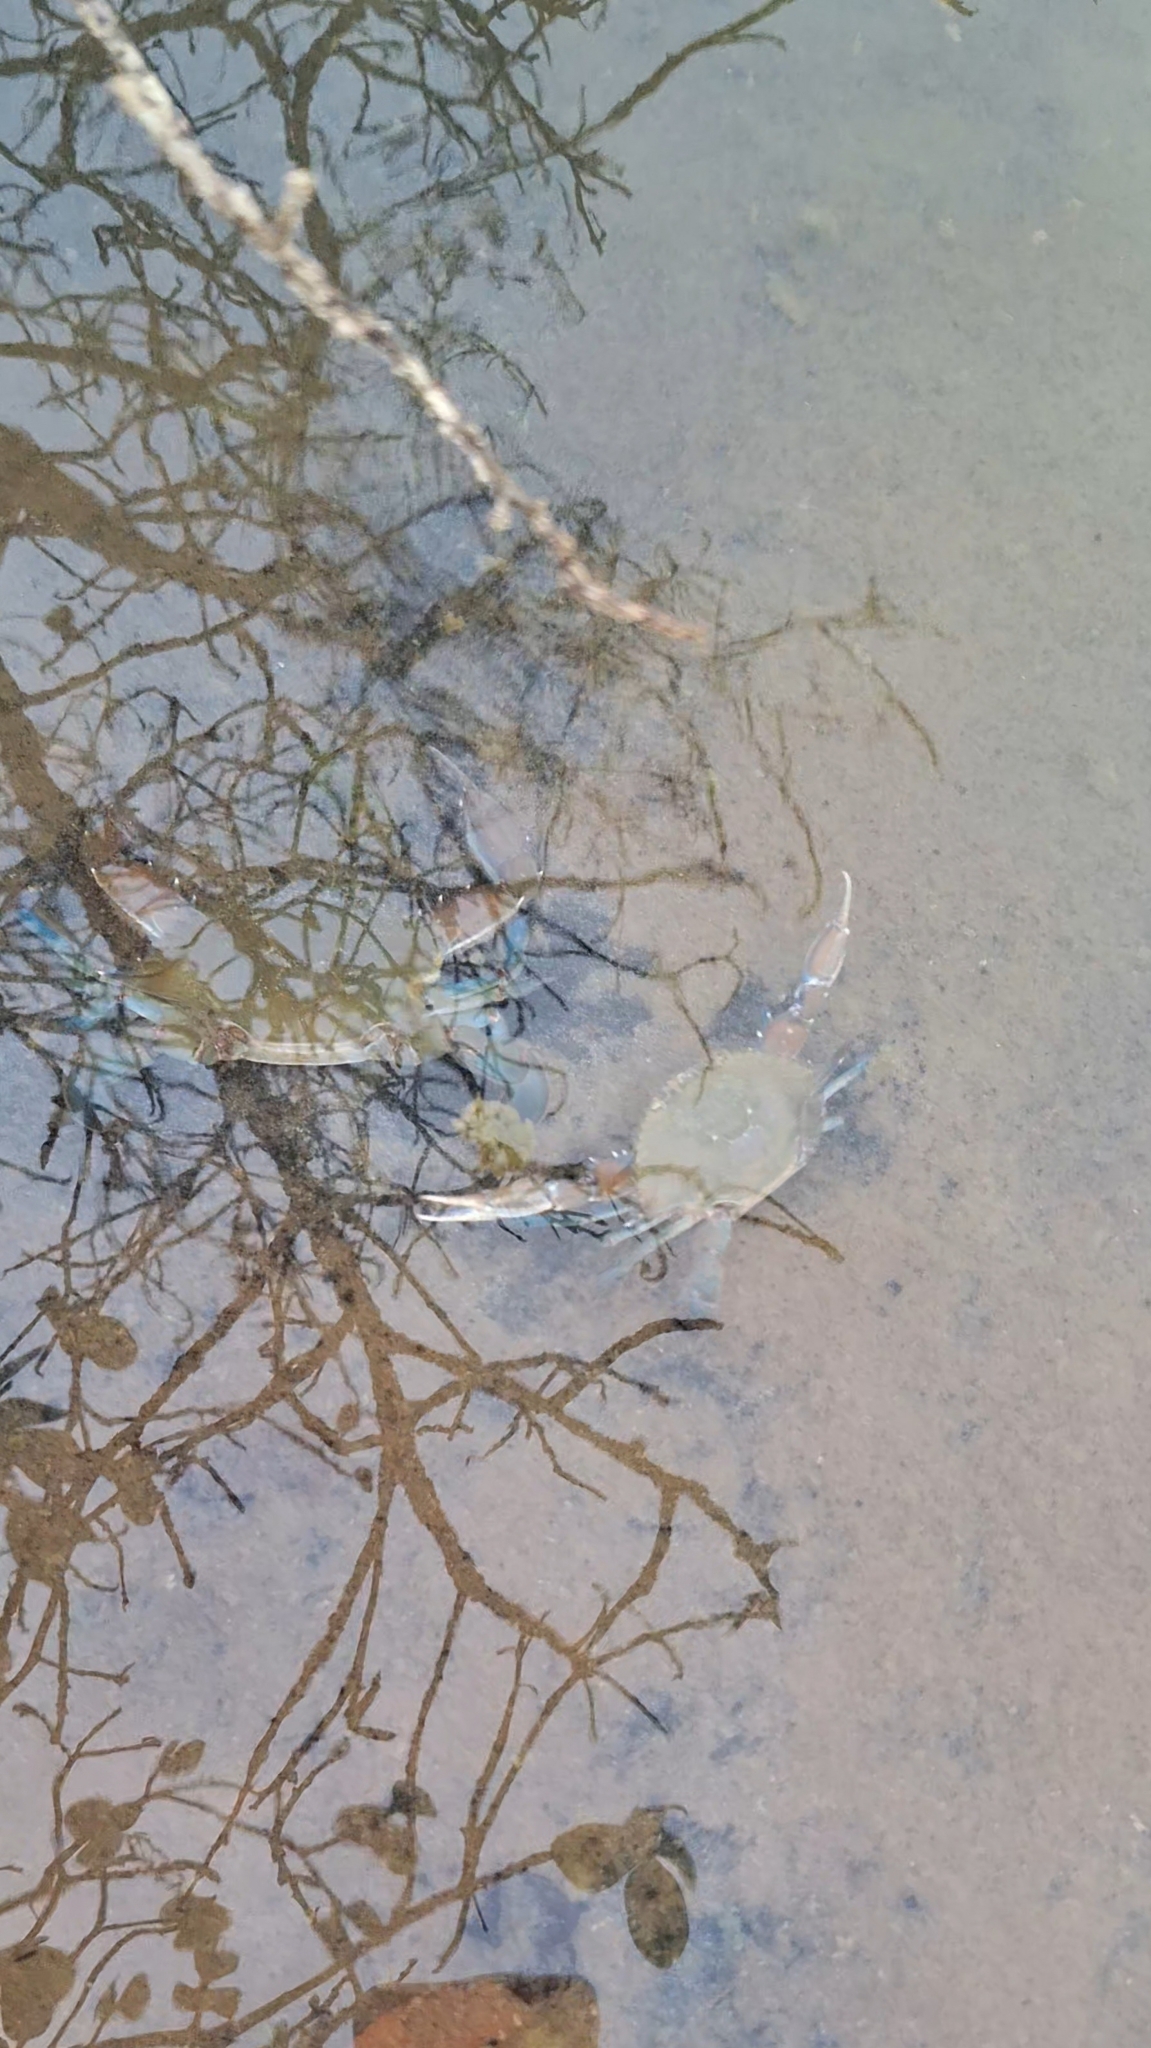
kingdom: Animalia
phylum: Arthropoda
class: Malacostraca
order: Decapoda
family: Portunidae
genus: Callinectes
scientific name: Callinectes arcuatus
